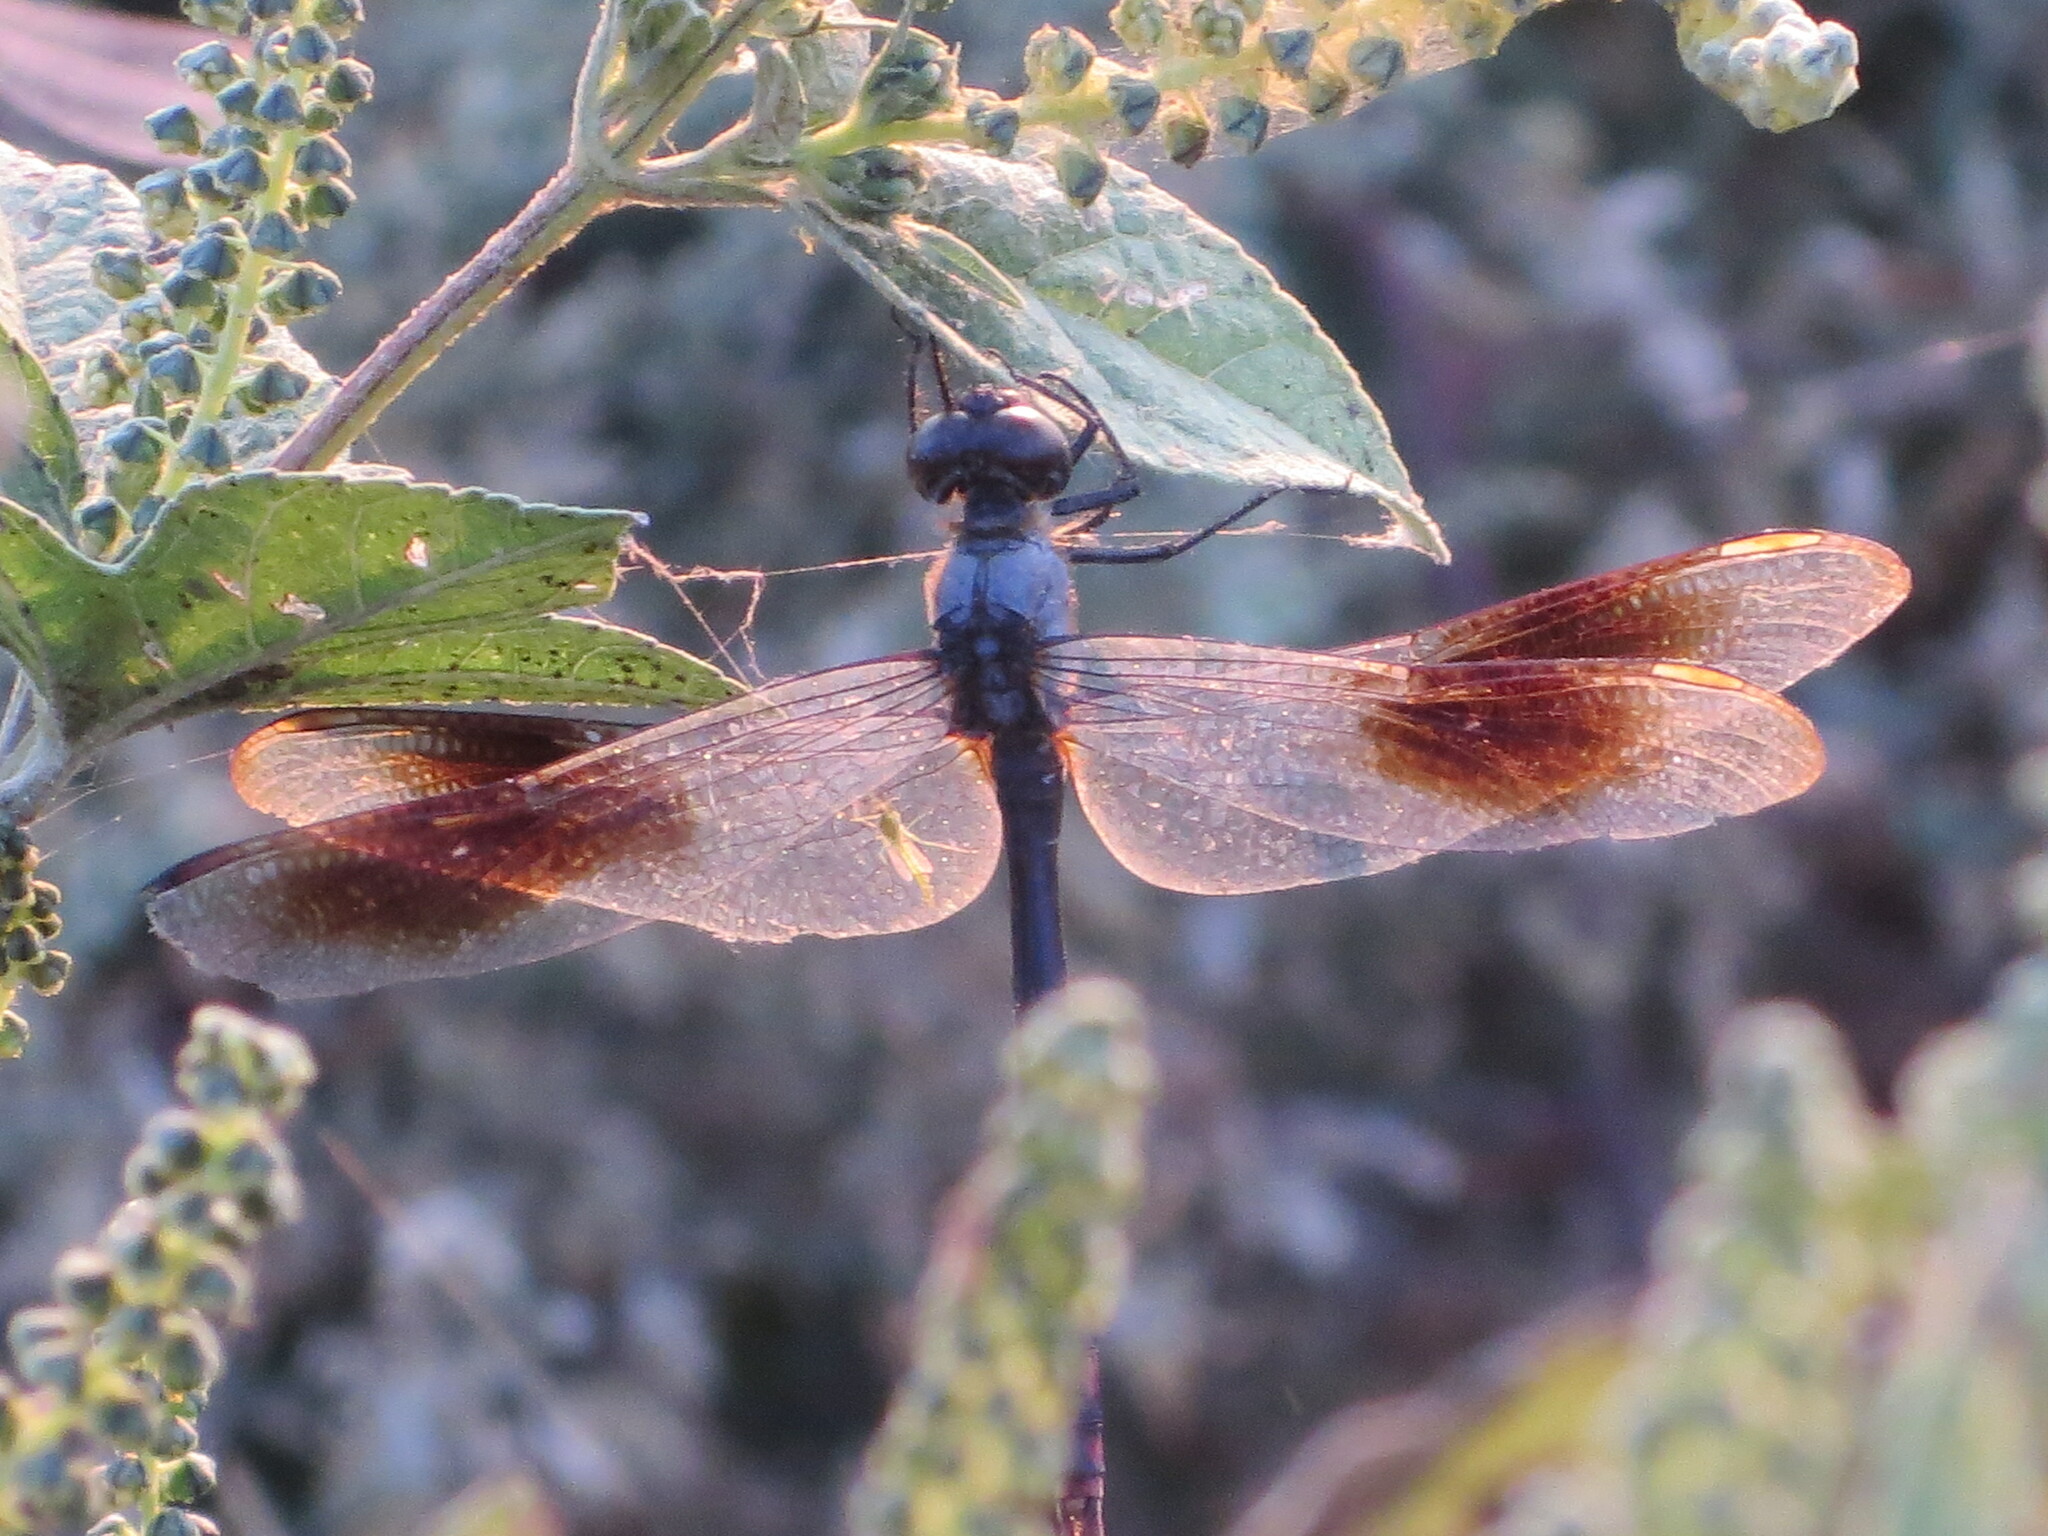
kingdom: Animalia
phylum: Arthropoda
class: Insecta
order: Odonata
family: Libellulidae
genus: Brachymesia
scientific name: Brachymesia gravida
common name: Four-spotted pennant
